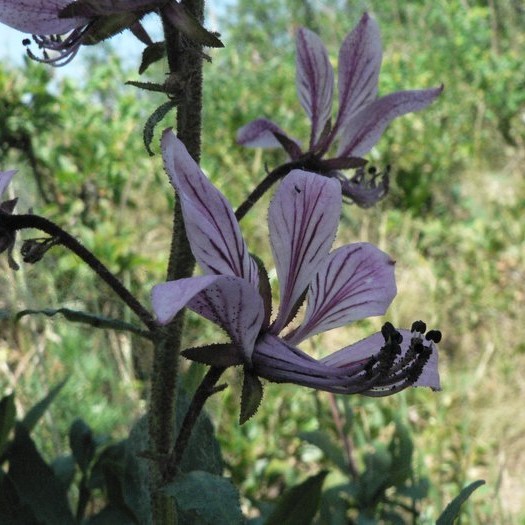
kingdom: Plantae
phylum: Tracheophyta
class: Magnoliopsida
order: Sapindales
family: Rutaceae
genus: Dictamnus
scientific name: Dictamnus albus
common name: Gasplant
